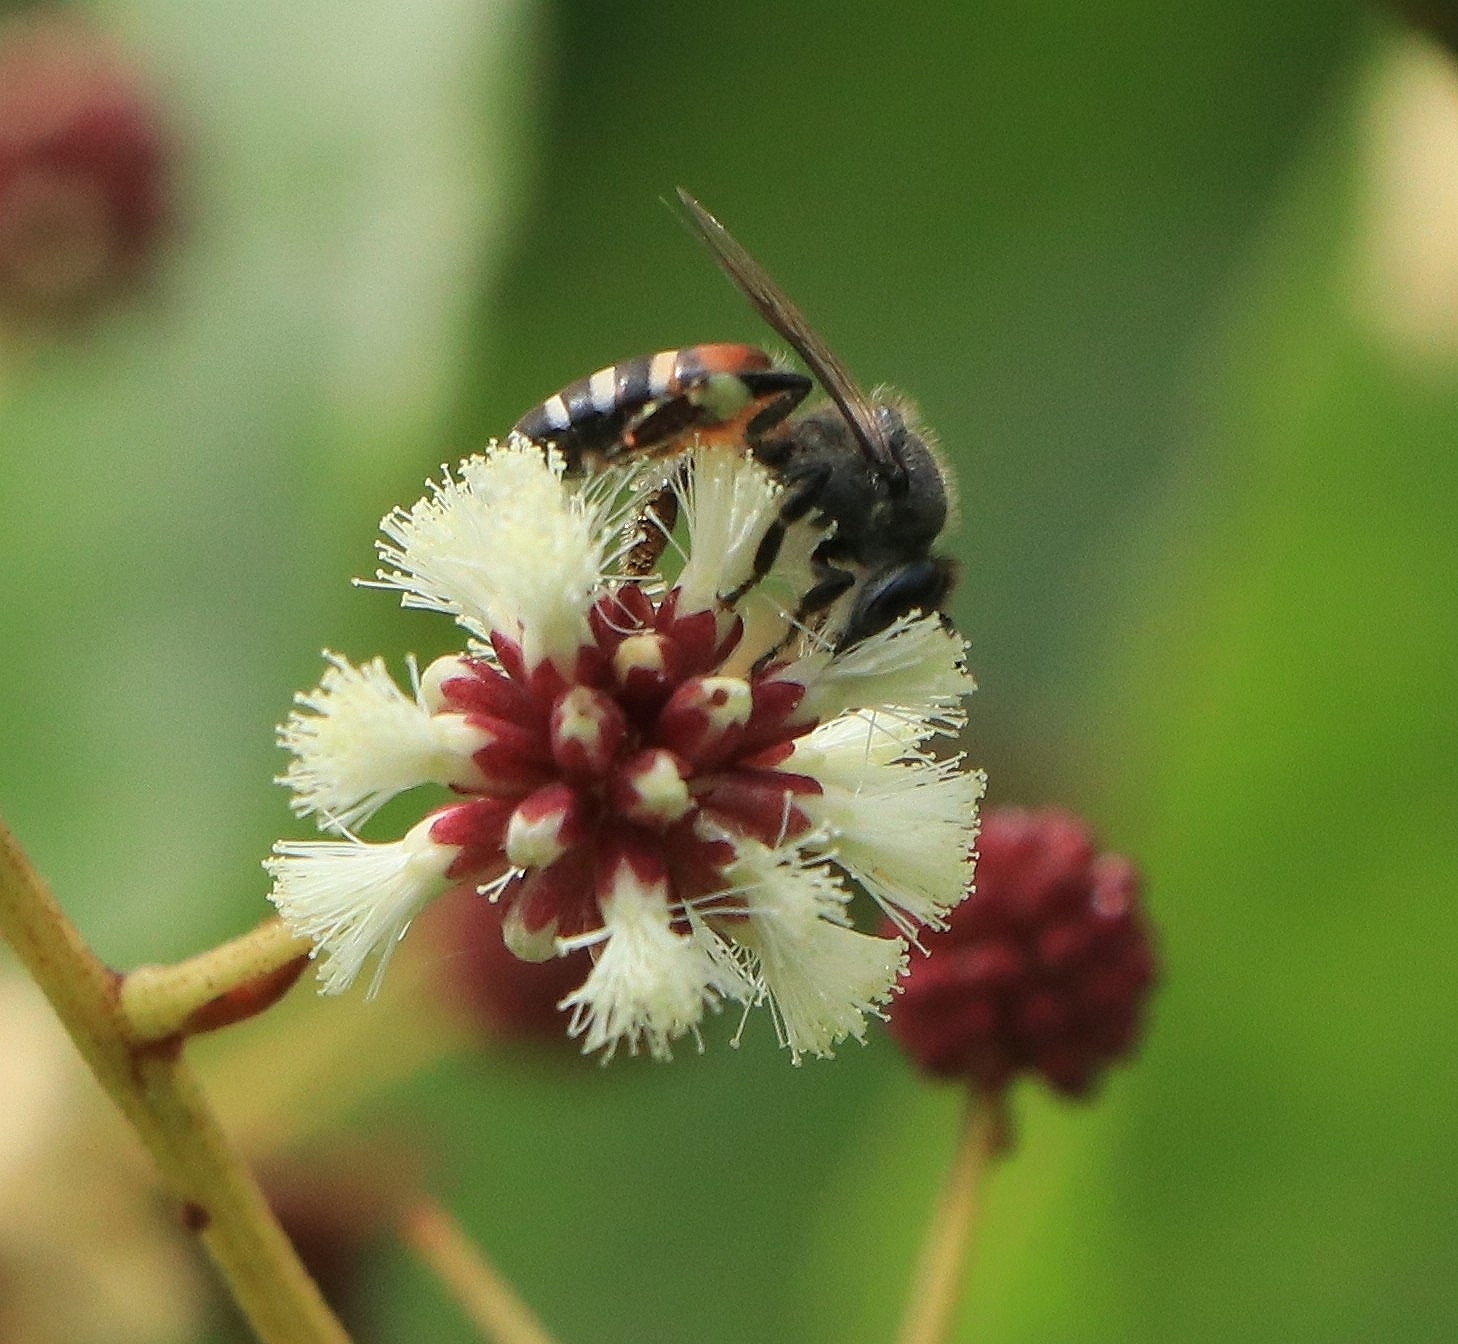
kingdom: Animalia
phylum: Arthropoda
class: Insecta
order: Hymenoptera
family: Apidae
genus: Apis
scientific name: Apis florea
